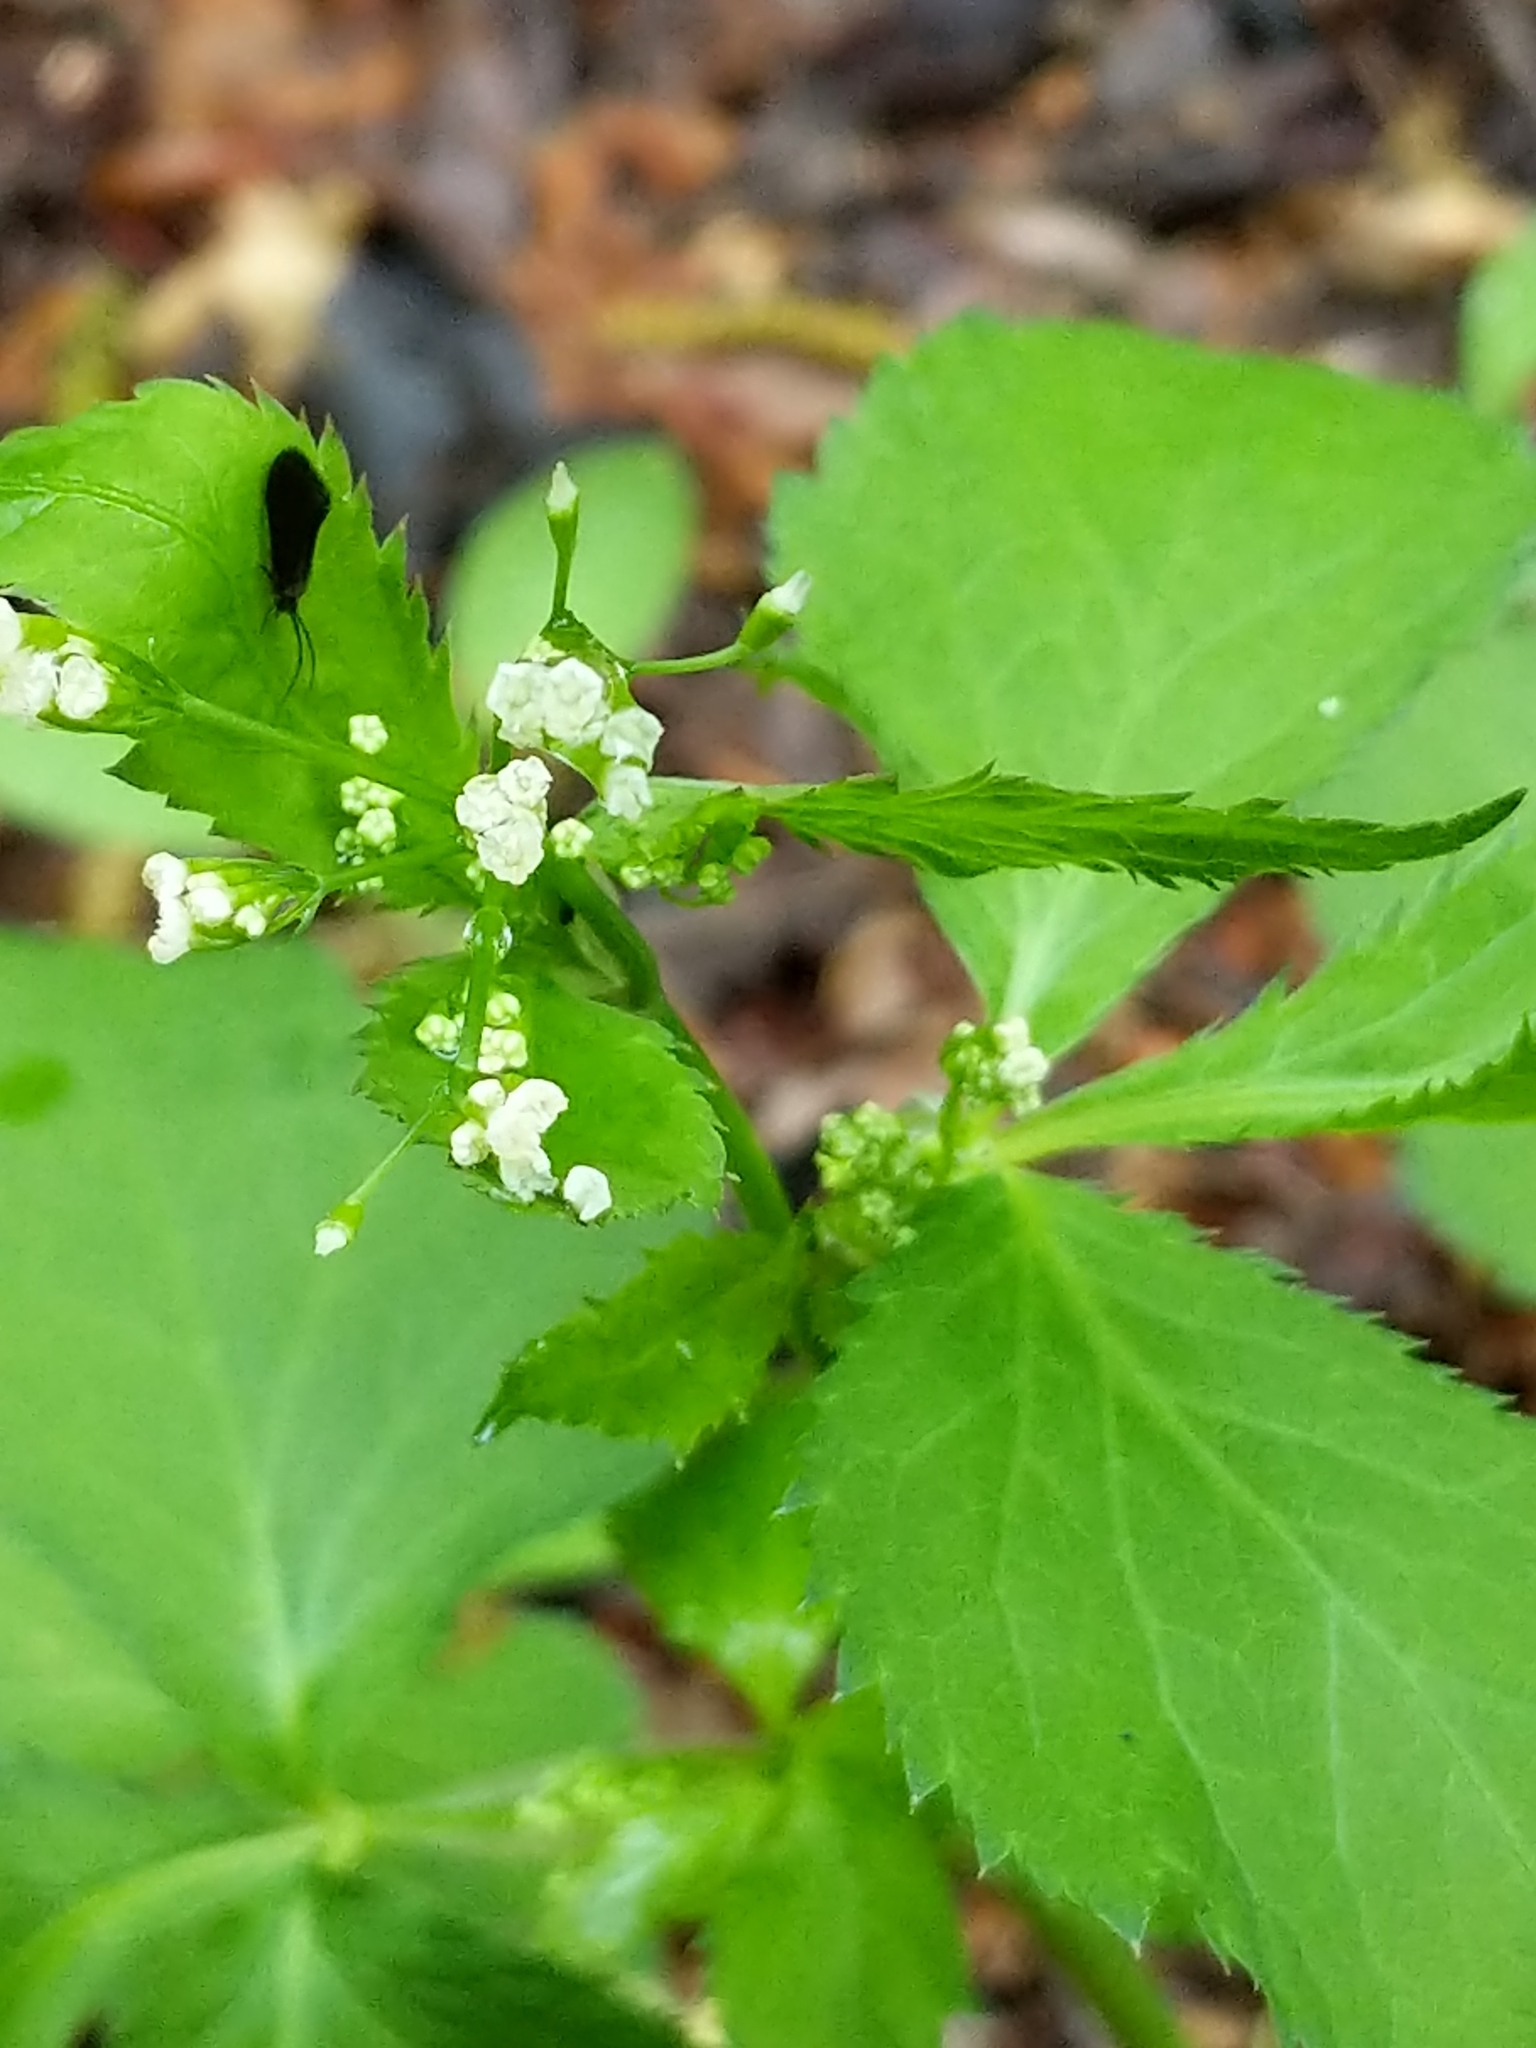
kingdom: Plantae
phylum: Tracheophyta
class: Magnoliopsida
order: Apiales
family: Apiaceae
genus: Cryptotaenia
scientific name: Cryptotaenia canadensis
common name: Honewort
